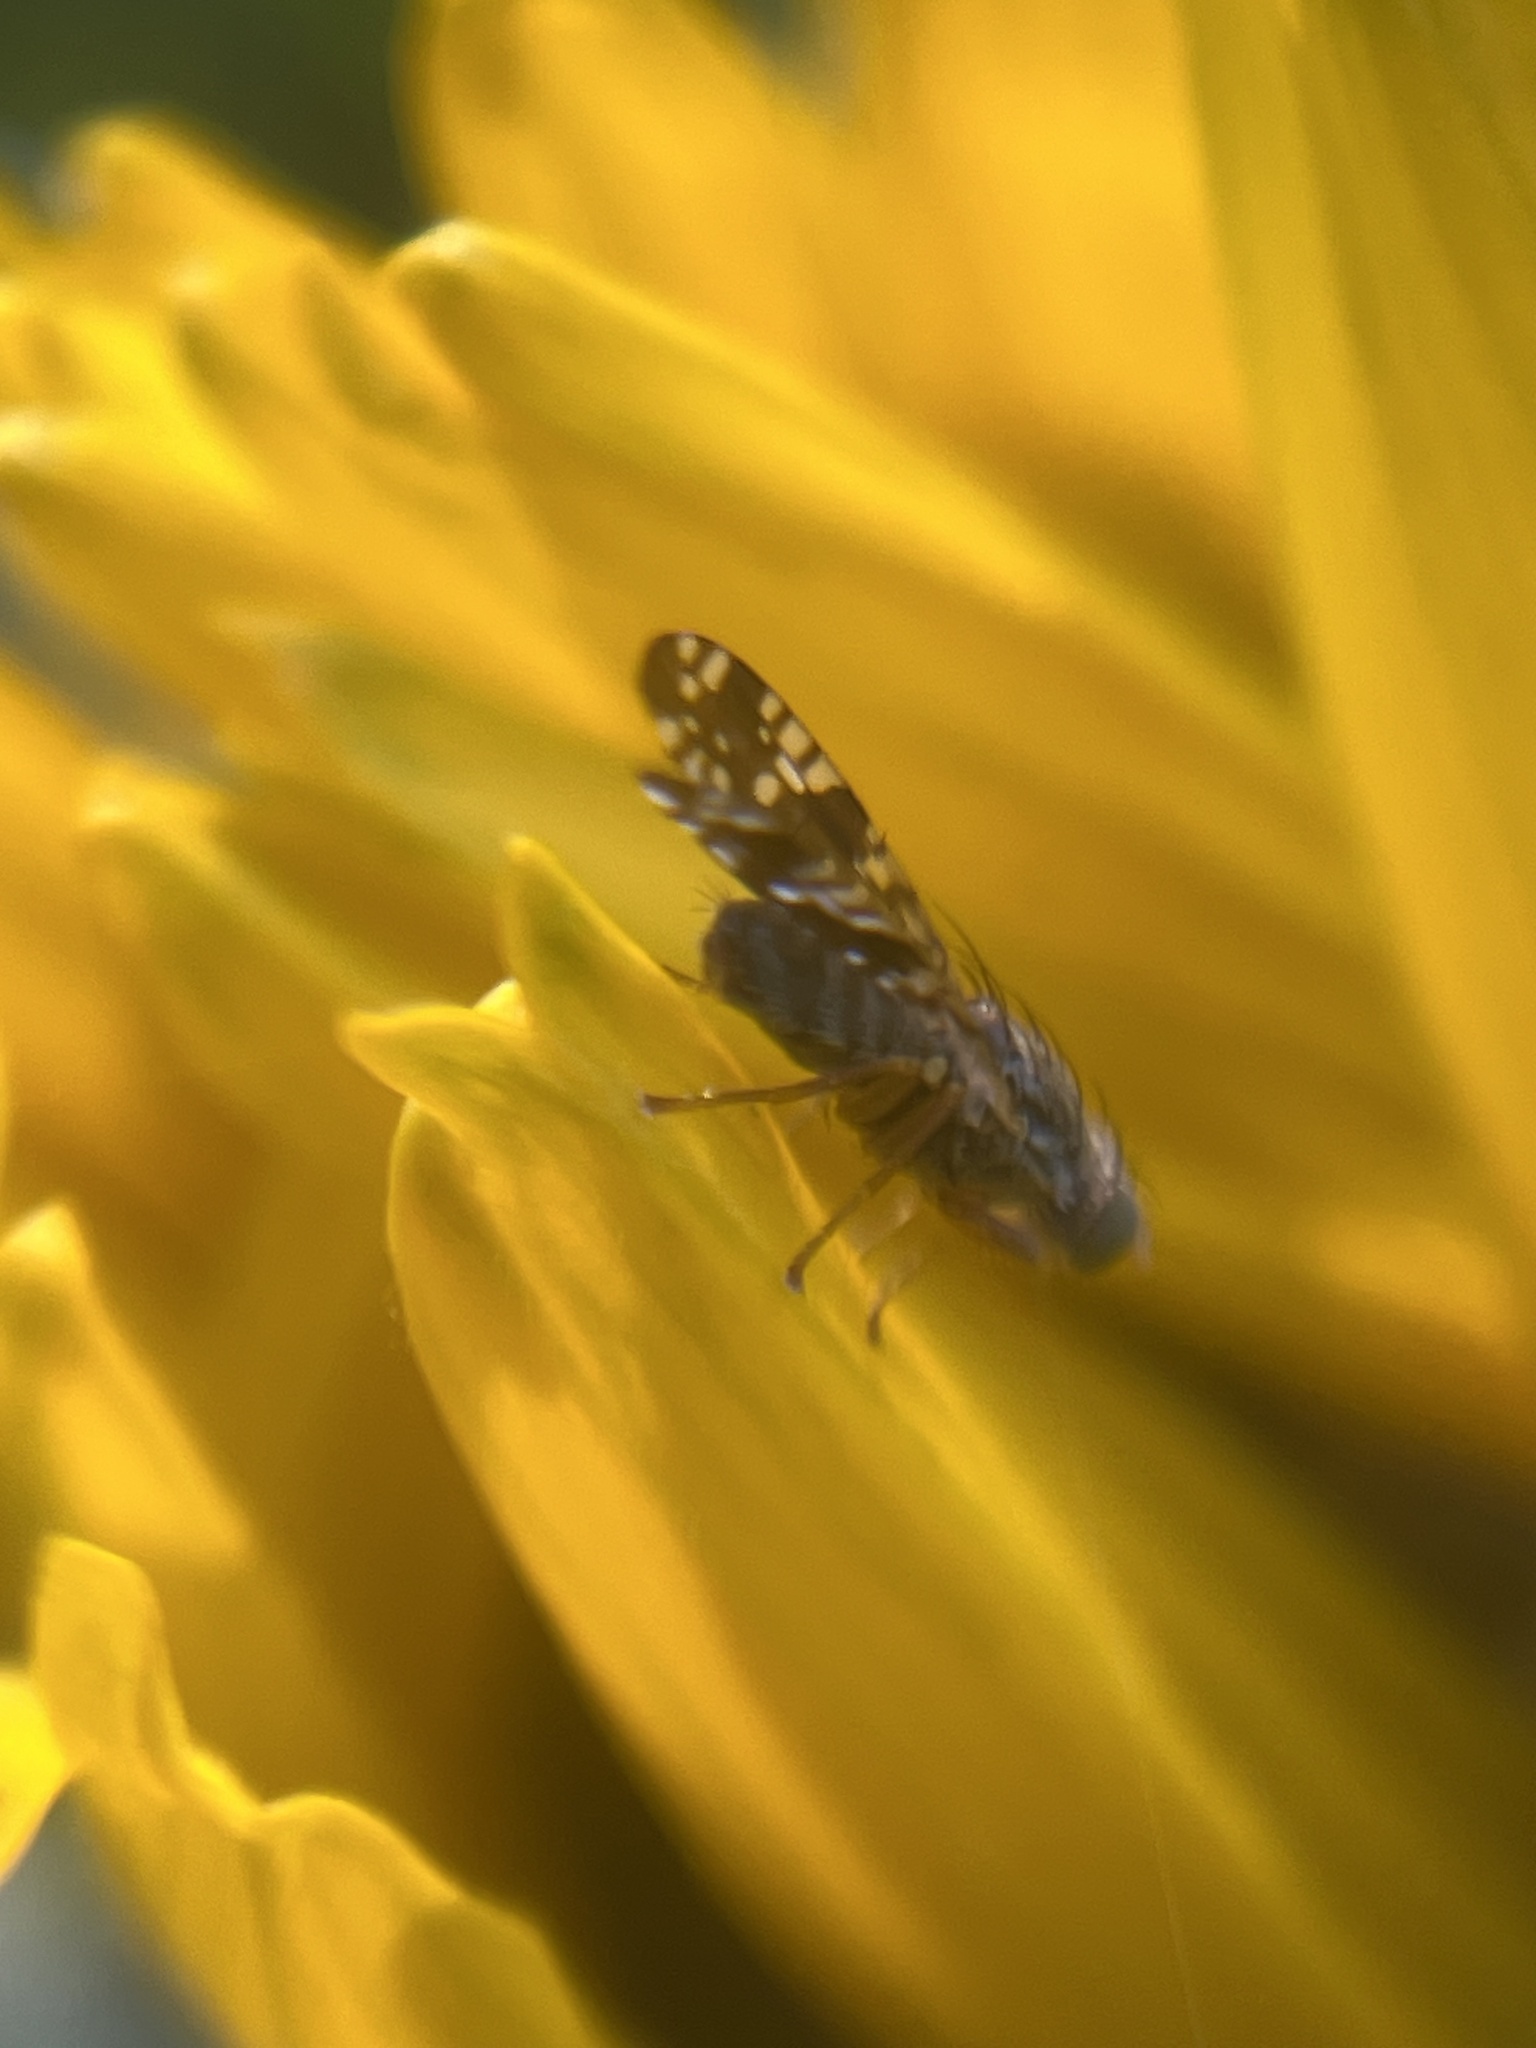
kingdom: Animalia
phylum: Arthropoda
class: Insecta
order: Diptera
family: Tephritidae
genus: Neotephritis
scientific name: Neotephritis finalis
